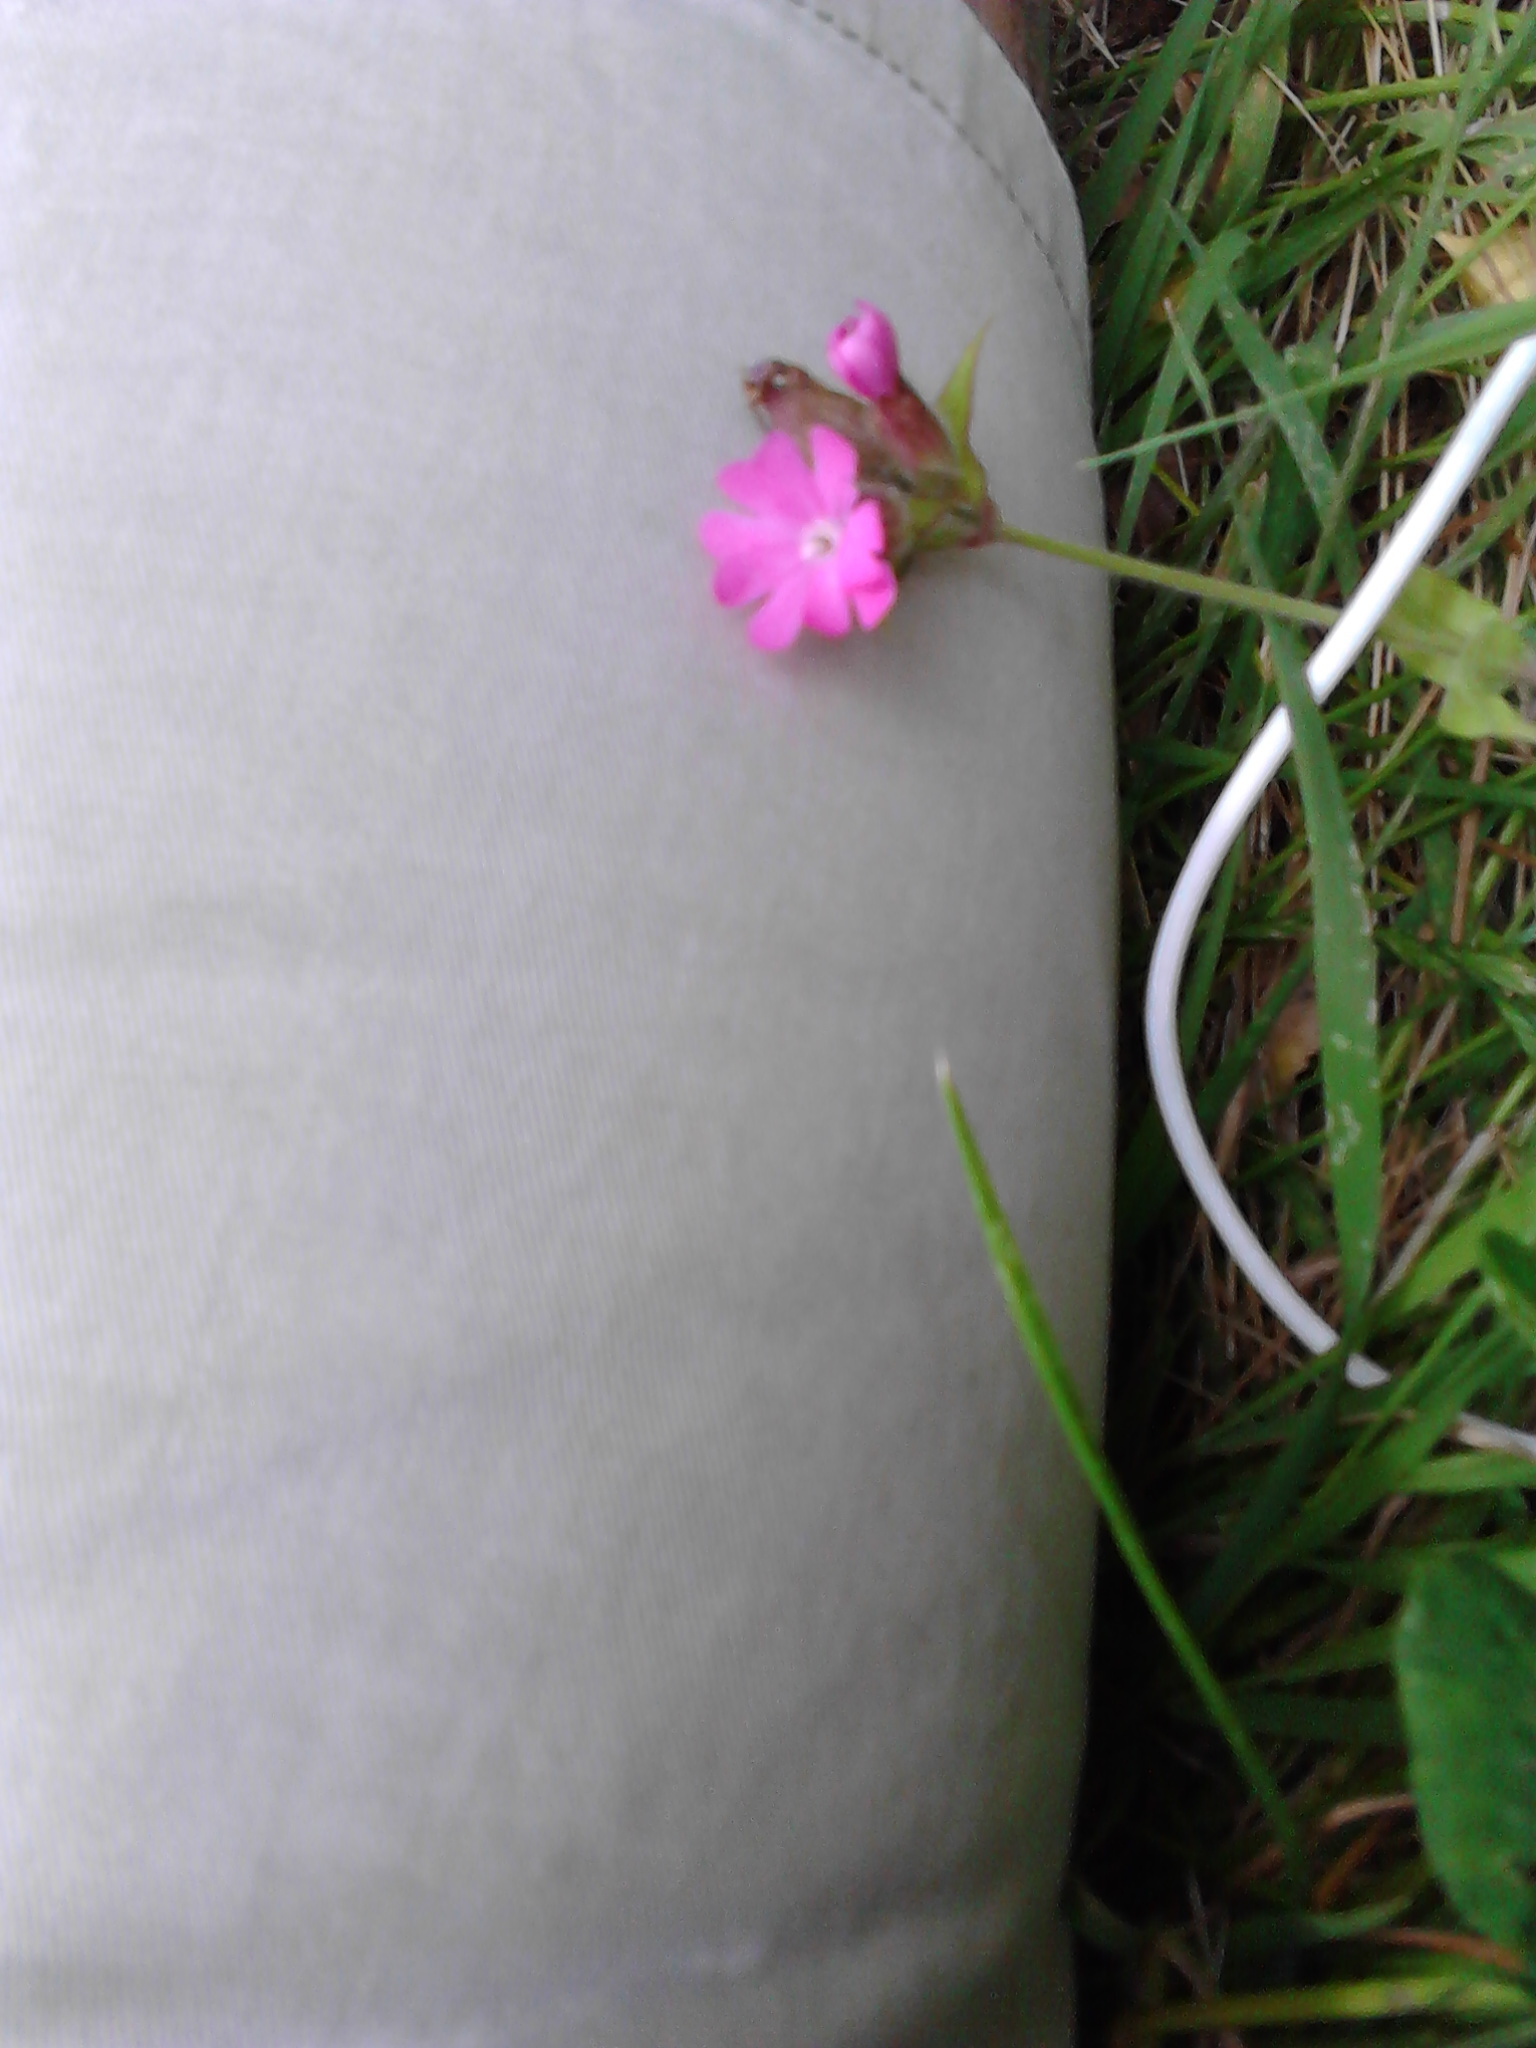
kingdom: Plantae
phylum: Tracheophyta
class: Magnoliopsida
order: Caryophyllales
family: Caryophyllaceae
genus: Silene
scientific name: Silene dioica
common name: Red campion
